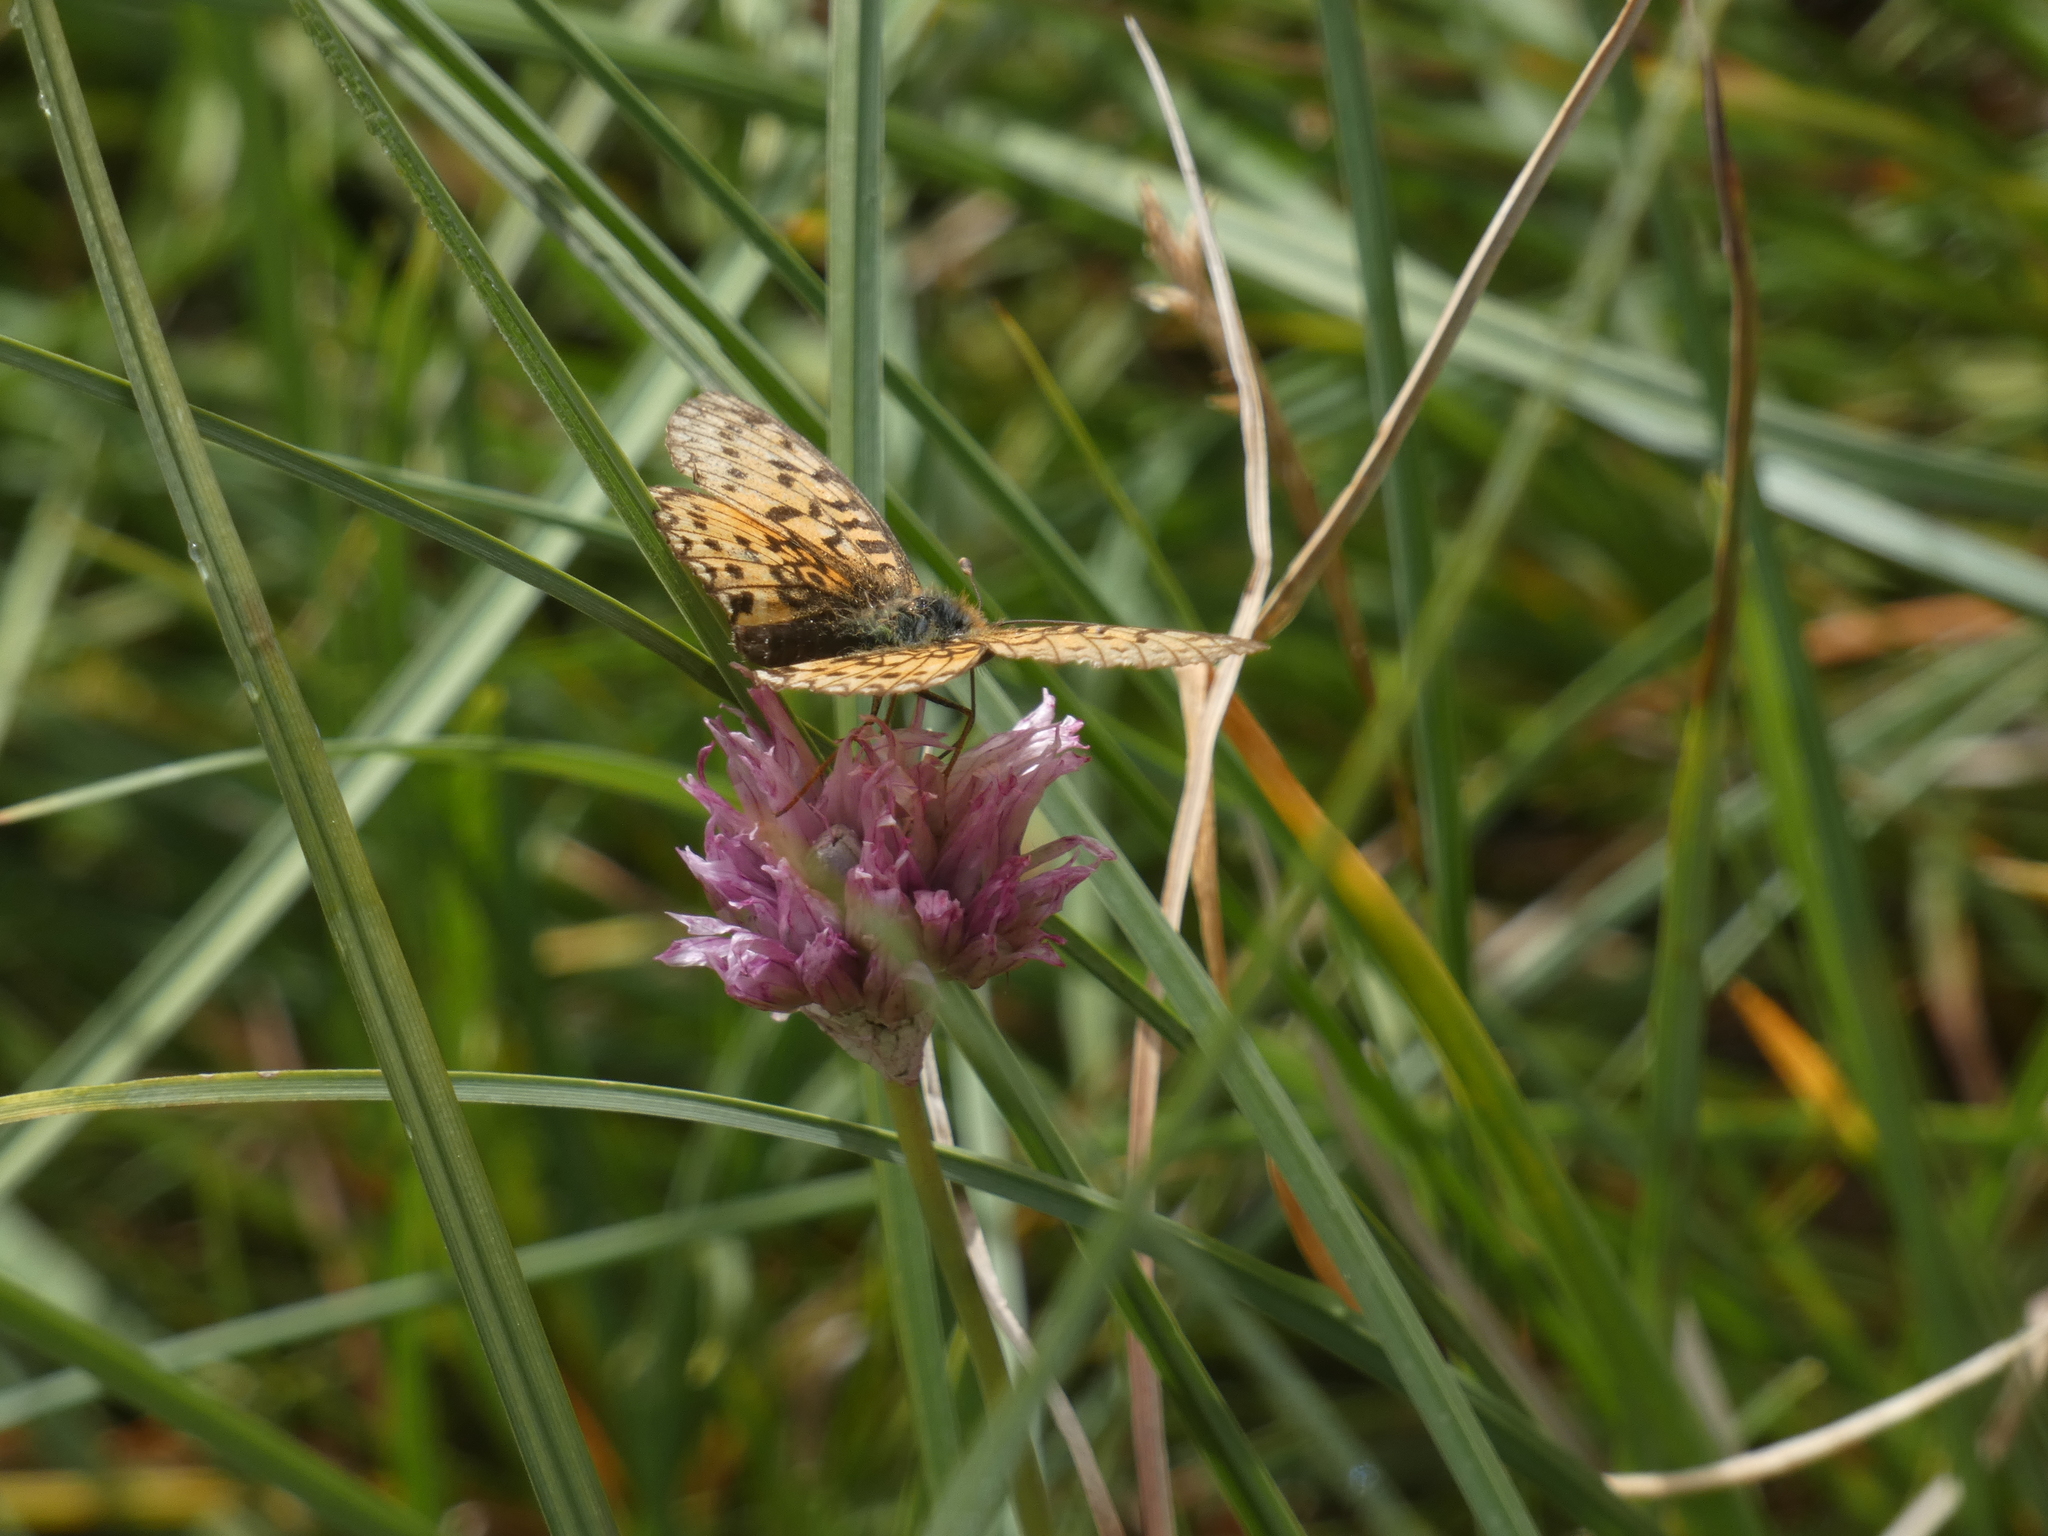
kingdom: Animalia
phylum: Arthropoda
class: Insecta
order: Lepidoptera
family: Nymphalidae
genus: Boloria
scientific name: Boloria selene
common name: Small pearl-bordered fritillary
